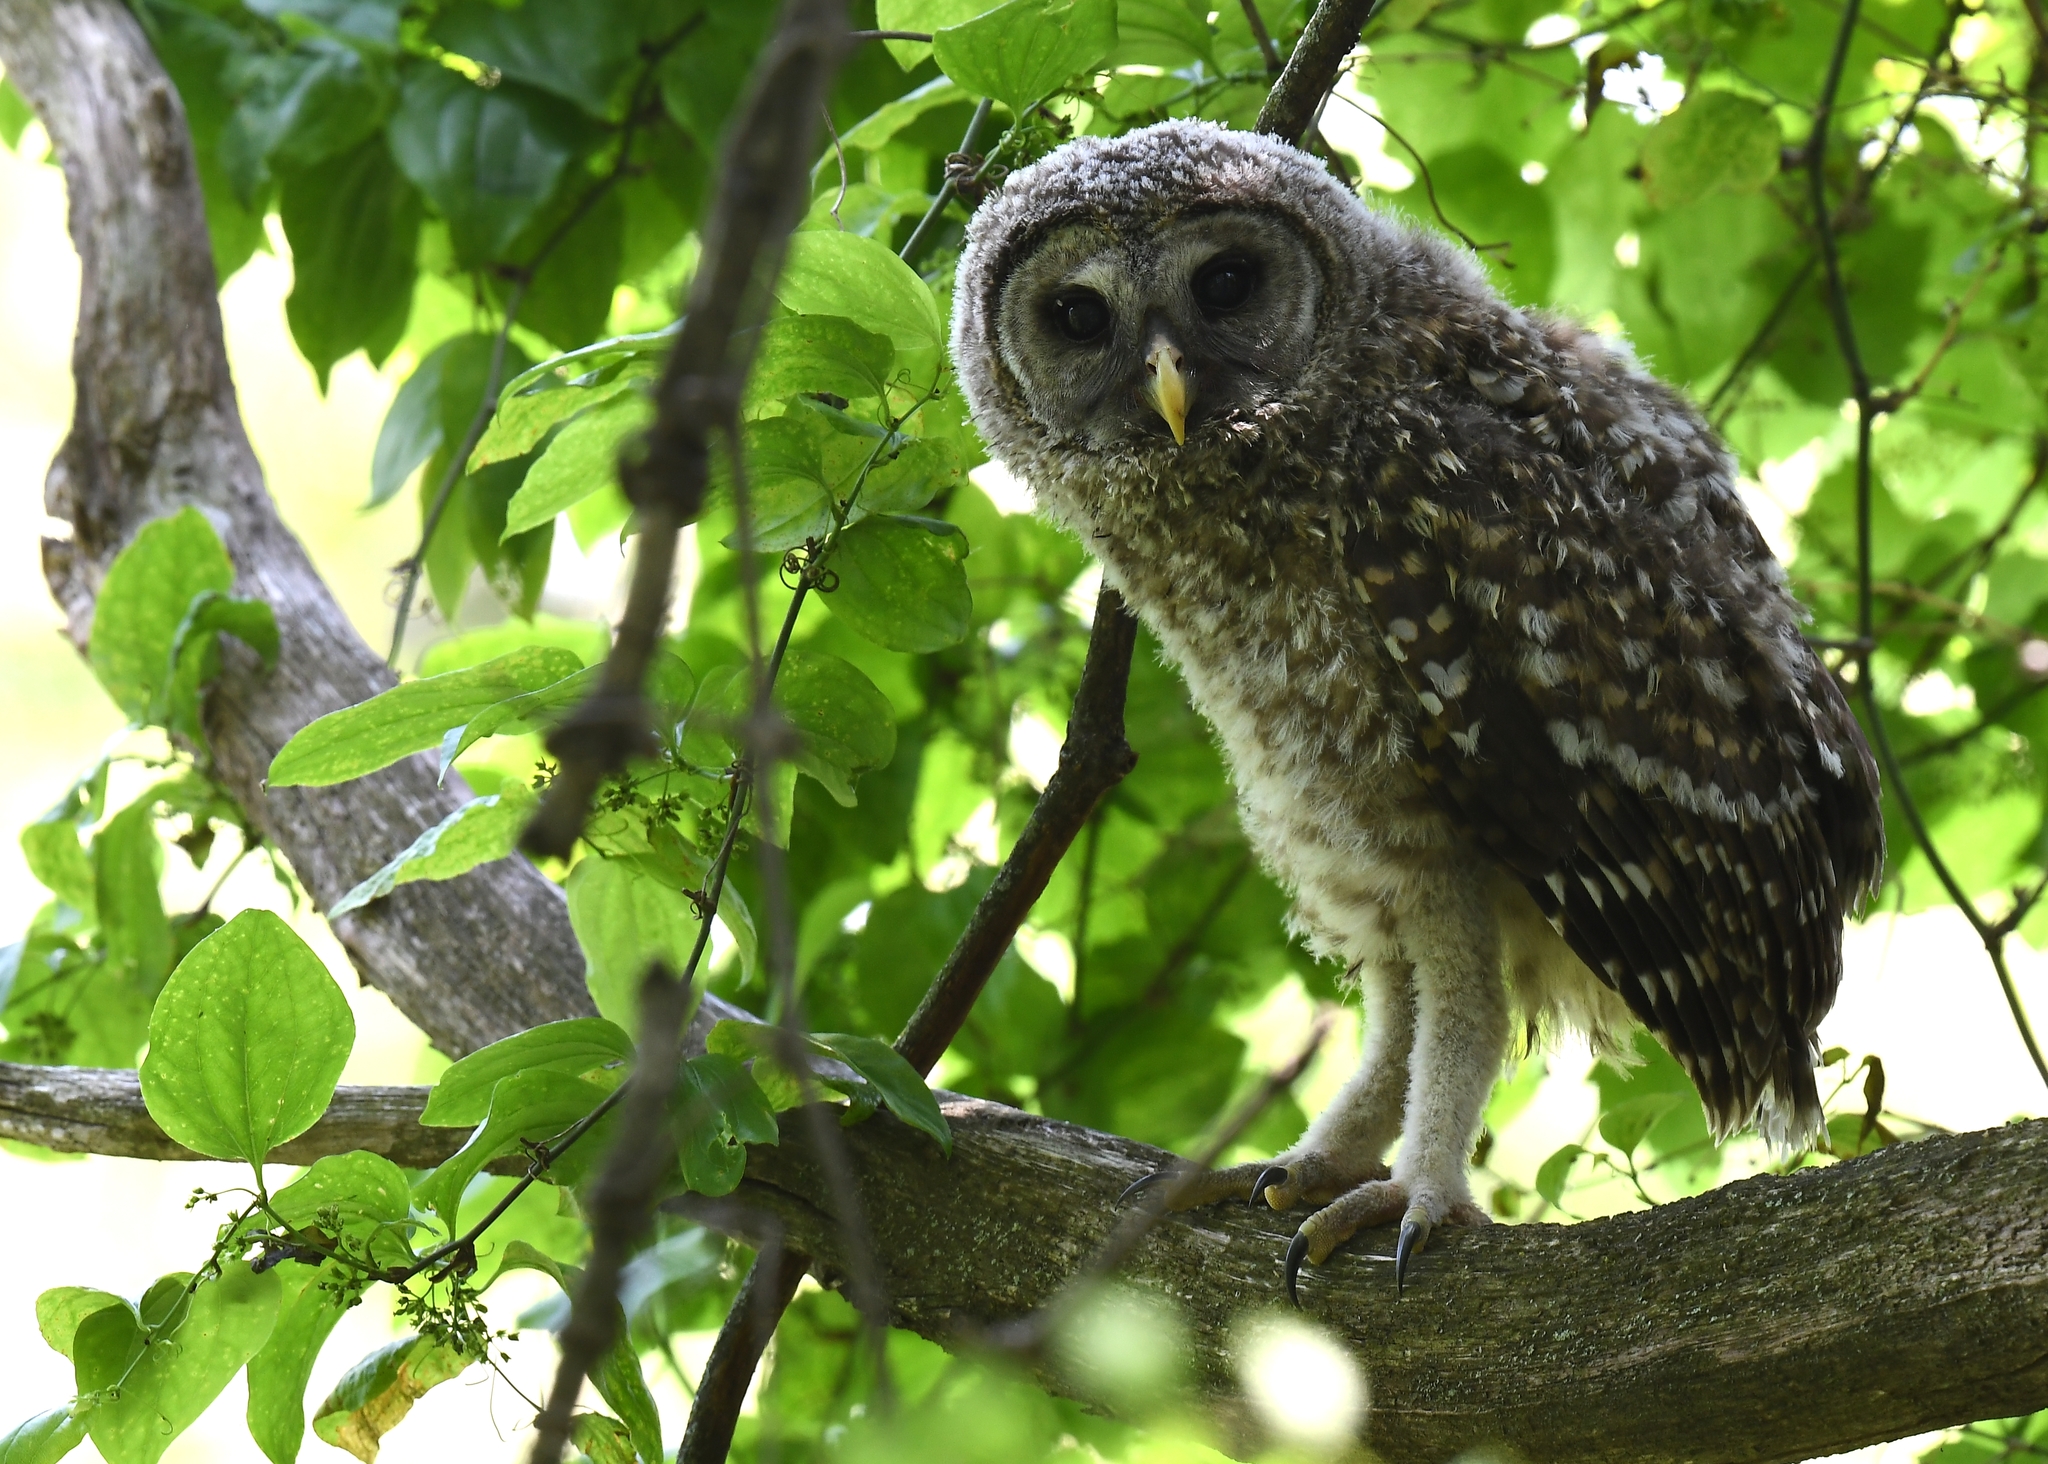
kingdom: Animalia
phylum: Chordata
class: Aves
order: Strigiformes
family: Strigidae
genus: Strix
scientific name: Strix varia
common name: Barred owl
